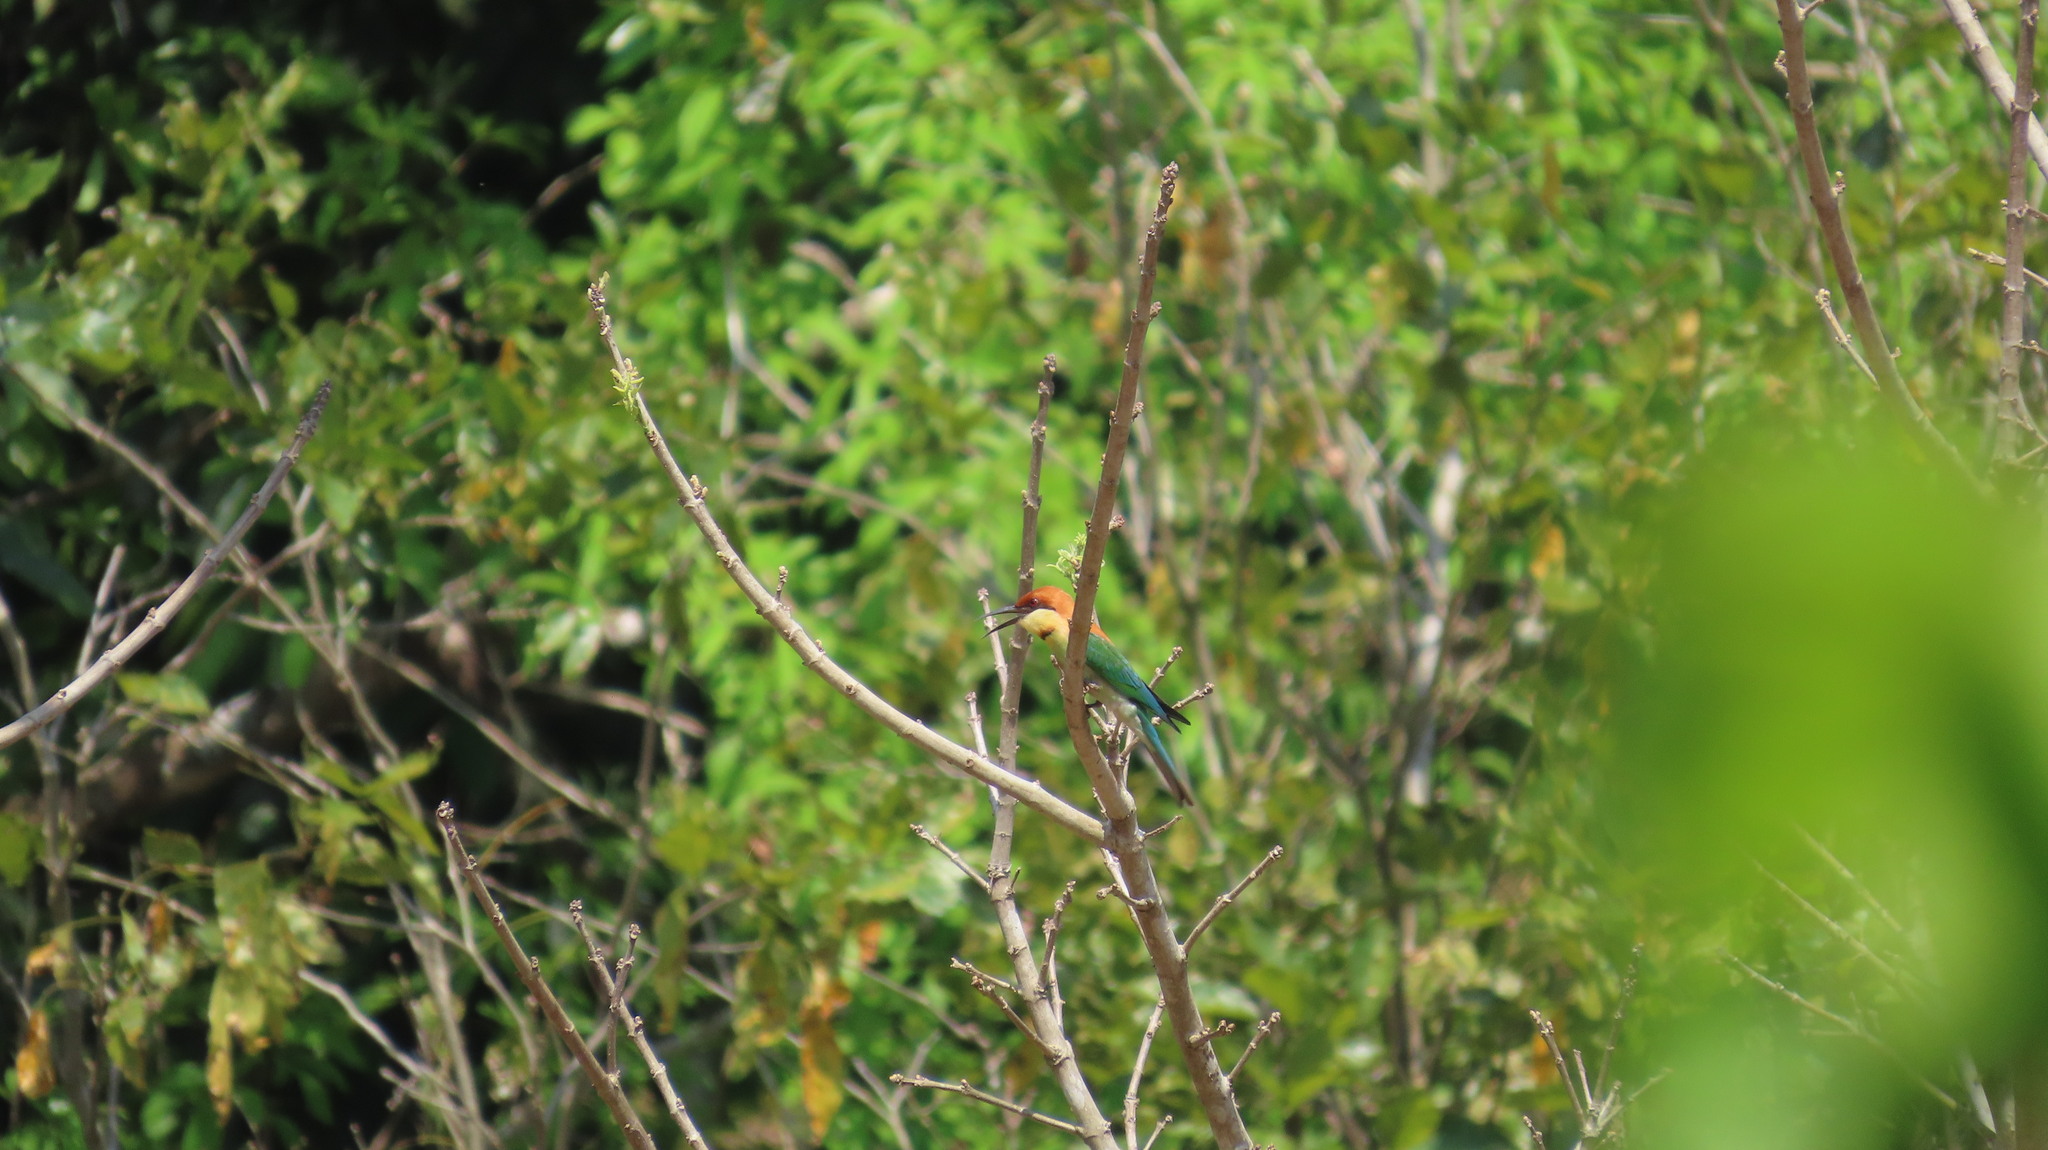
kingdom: Animalia
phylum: Chordata
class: Aves
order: Coraciiformes
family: Meropidae
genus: Merops
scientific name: Merops leschenaulti
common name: Chestnut-headed bee-eater
